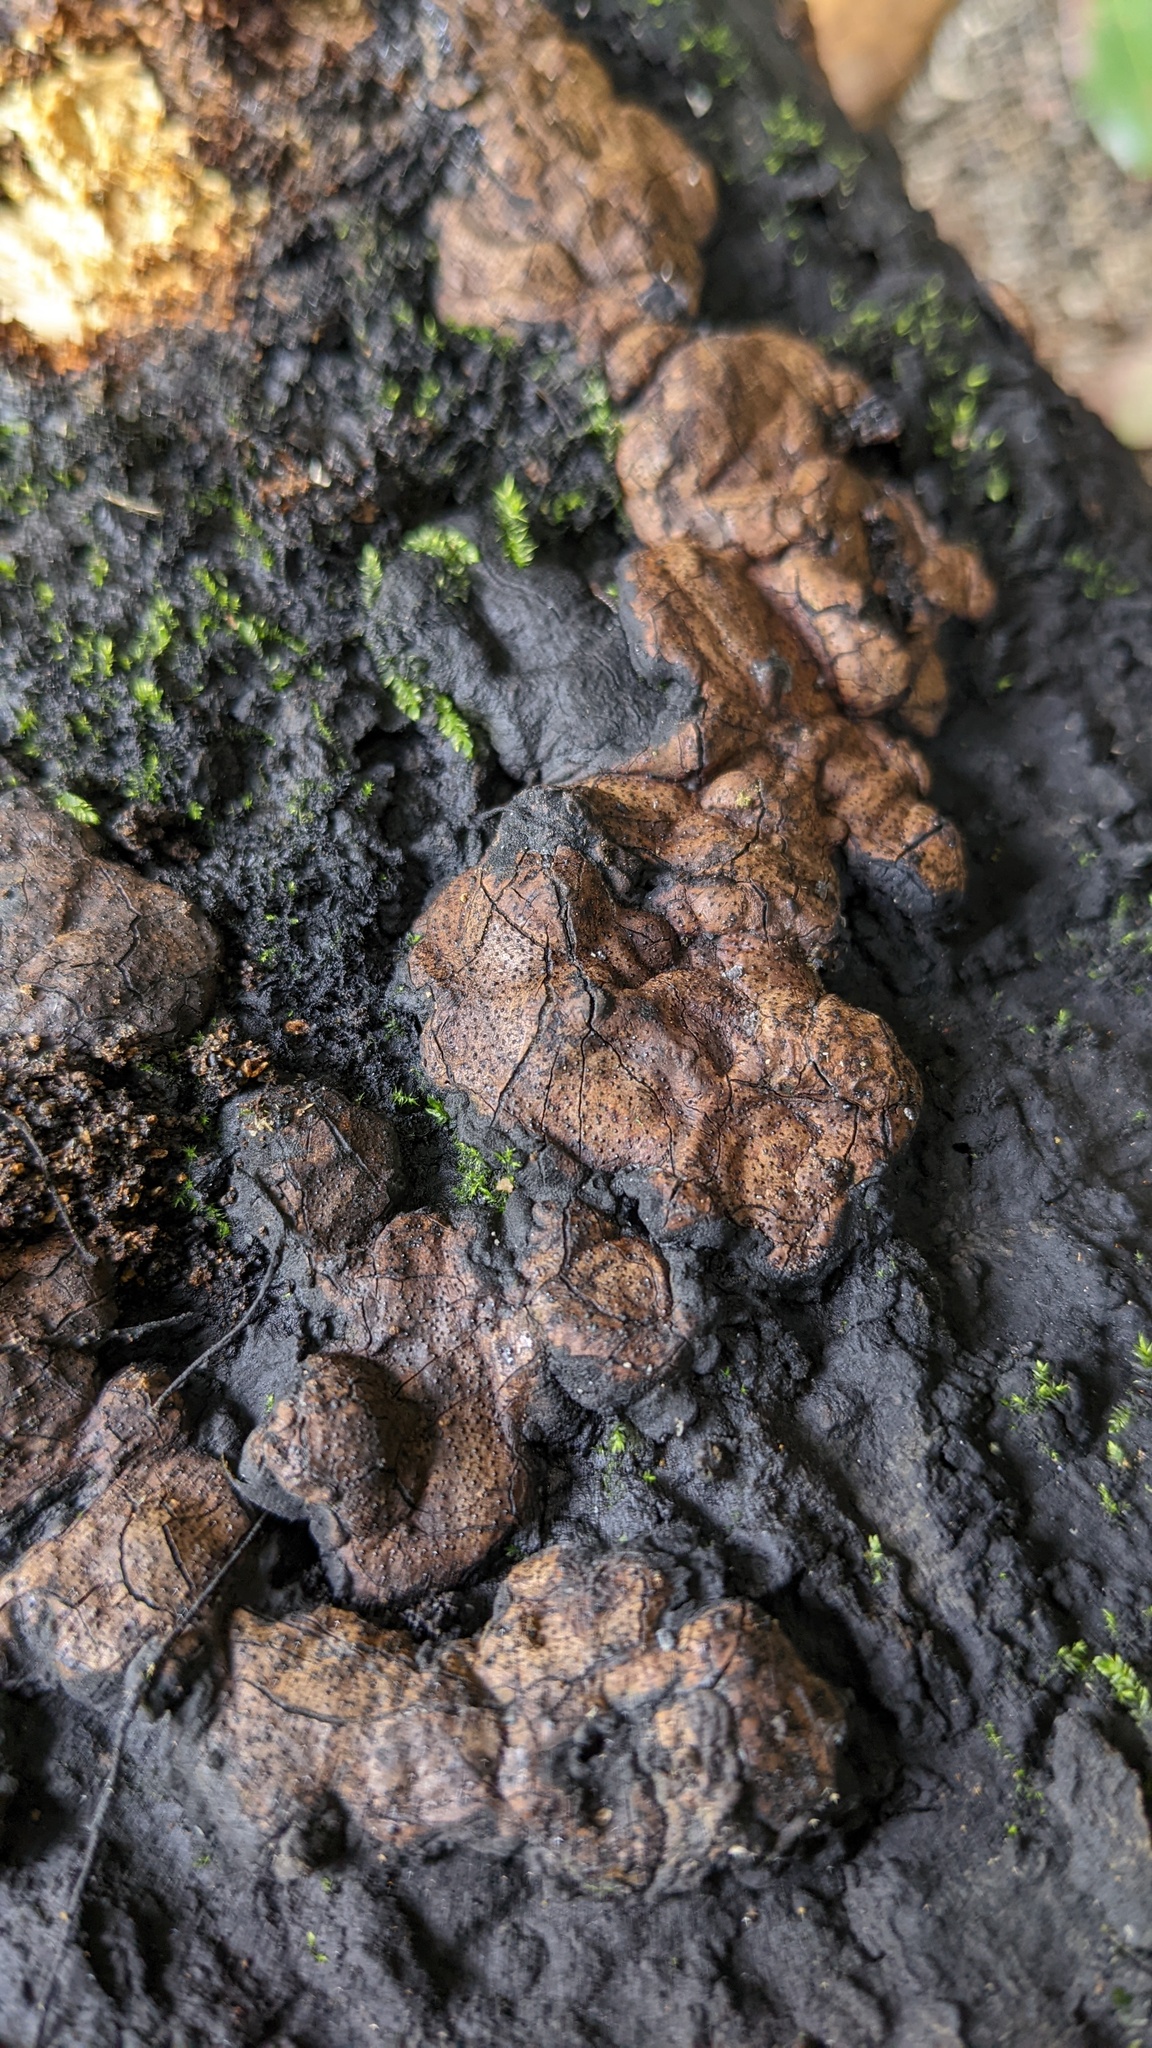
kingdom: Fungi
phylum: Ascomycota
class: Sordariomycetes
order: Xylariales
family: Xylariaceae
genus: Kretzschmaria
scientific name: Kretzschmaria deusta
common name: Brittle cinder
